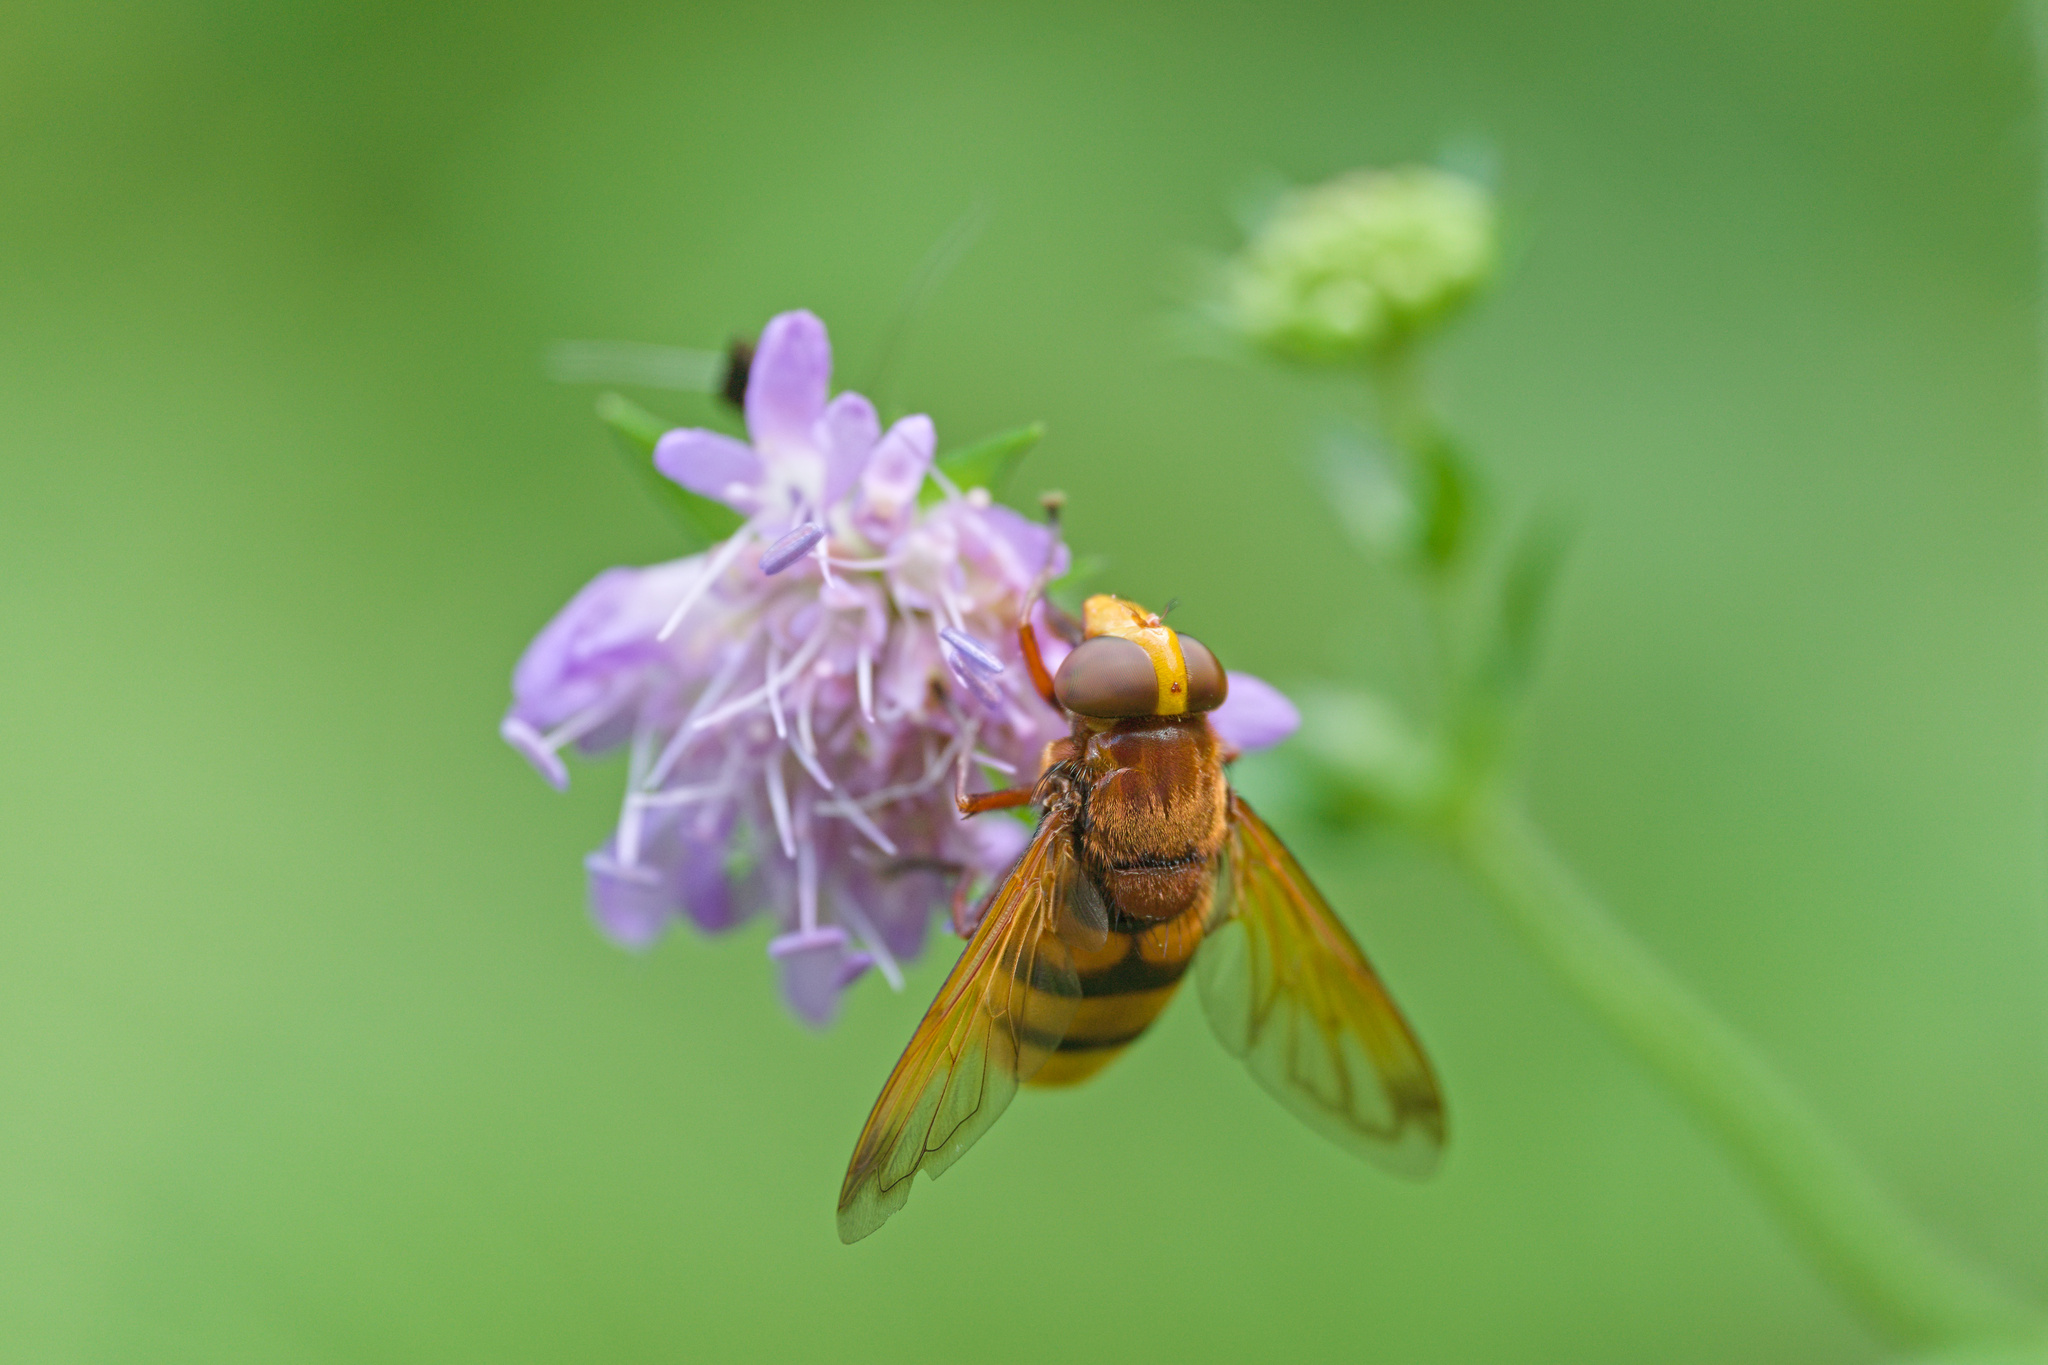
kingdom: Animalia
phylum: Arthropoda
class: Insecta
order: Diptera
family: Syrphidae
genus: Volucella
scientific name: Volucella zonaria
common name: Hornet hoverfly
